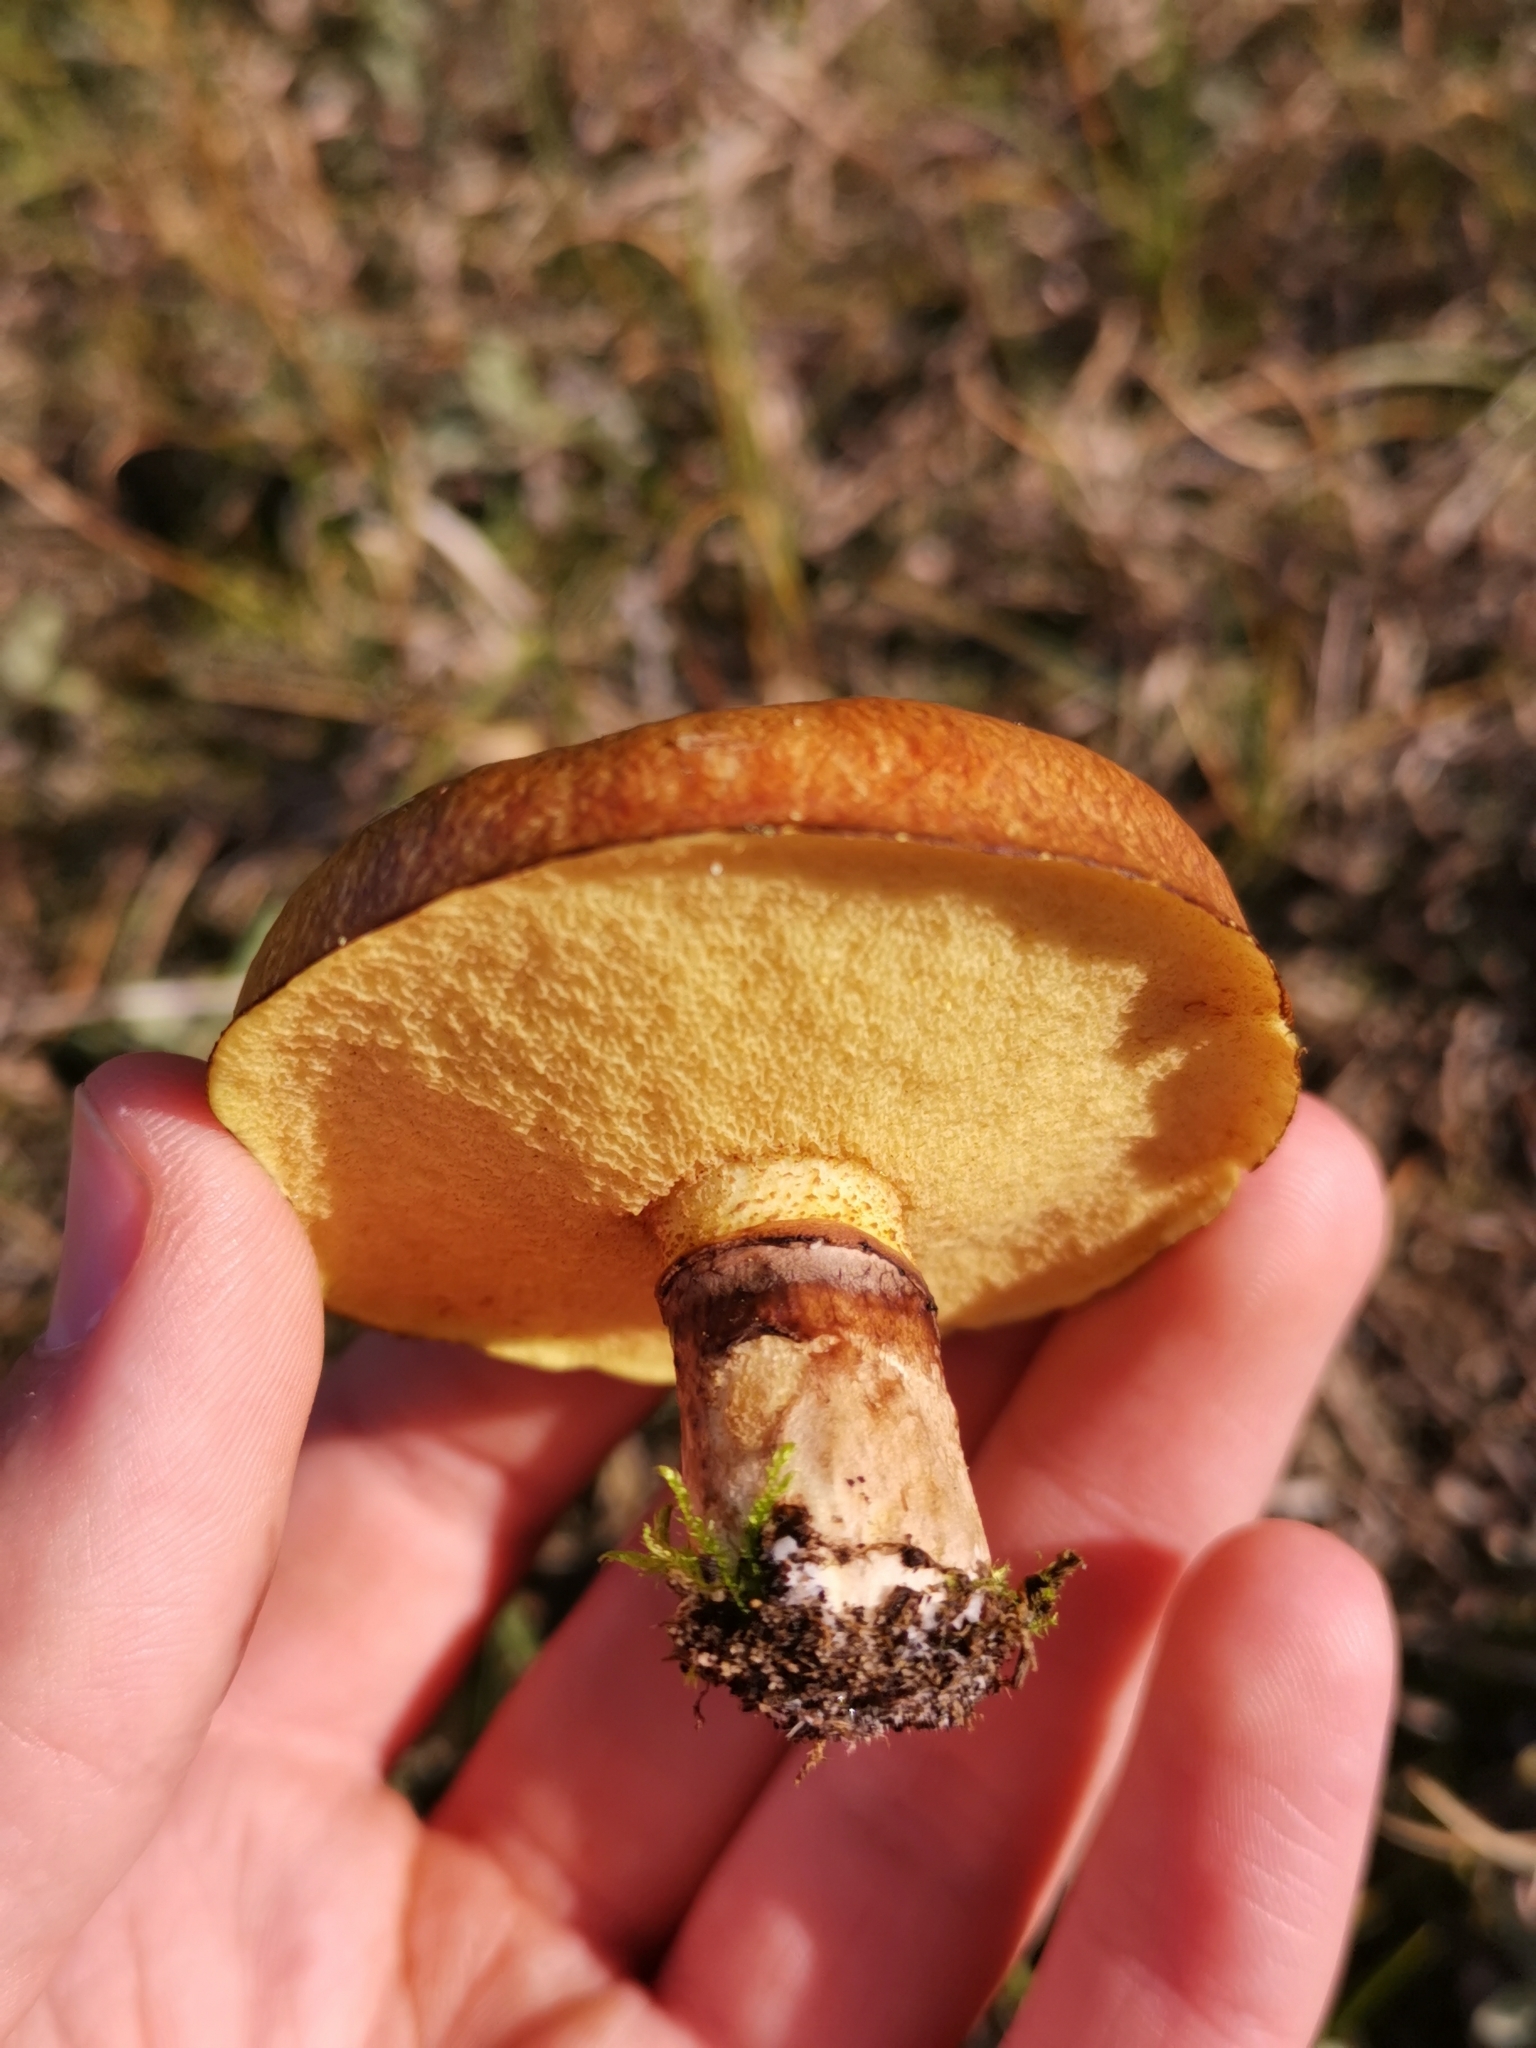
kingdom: Fungi
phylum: Basidiomycota
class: Agaricomycetes
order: Boletales
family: Suillaceae
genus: Suillus
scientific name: Suillus luteus
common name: Slippery jack
